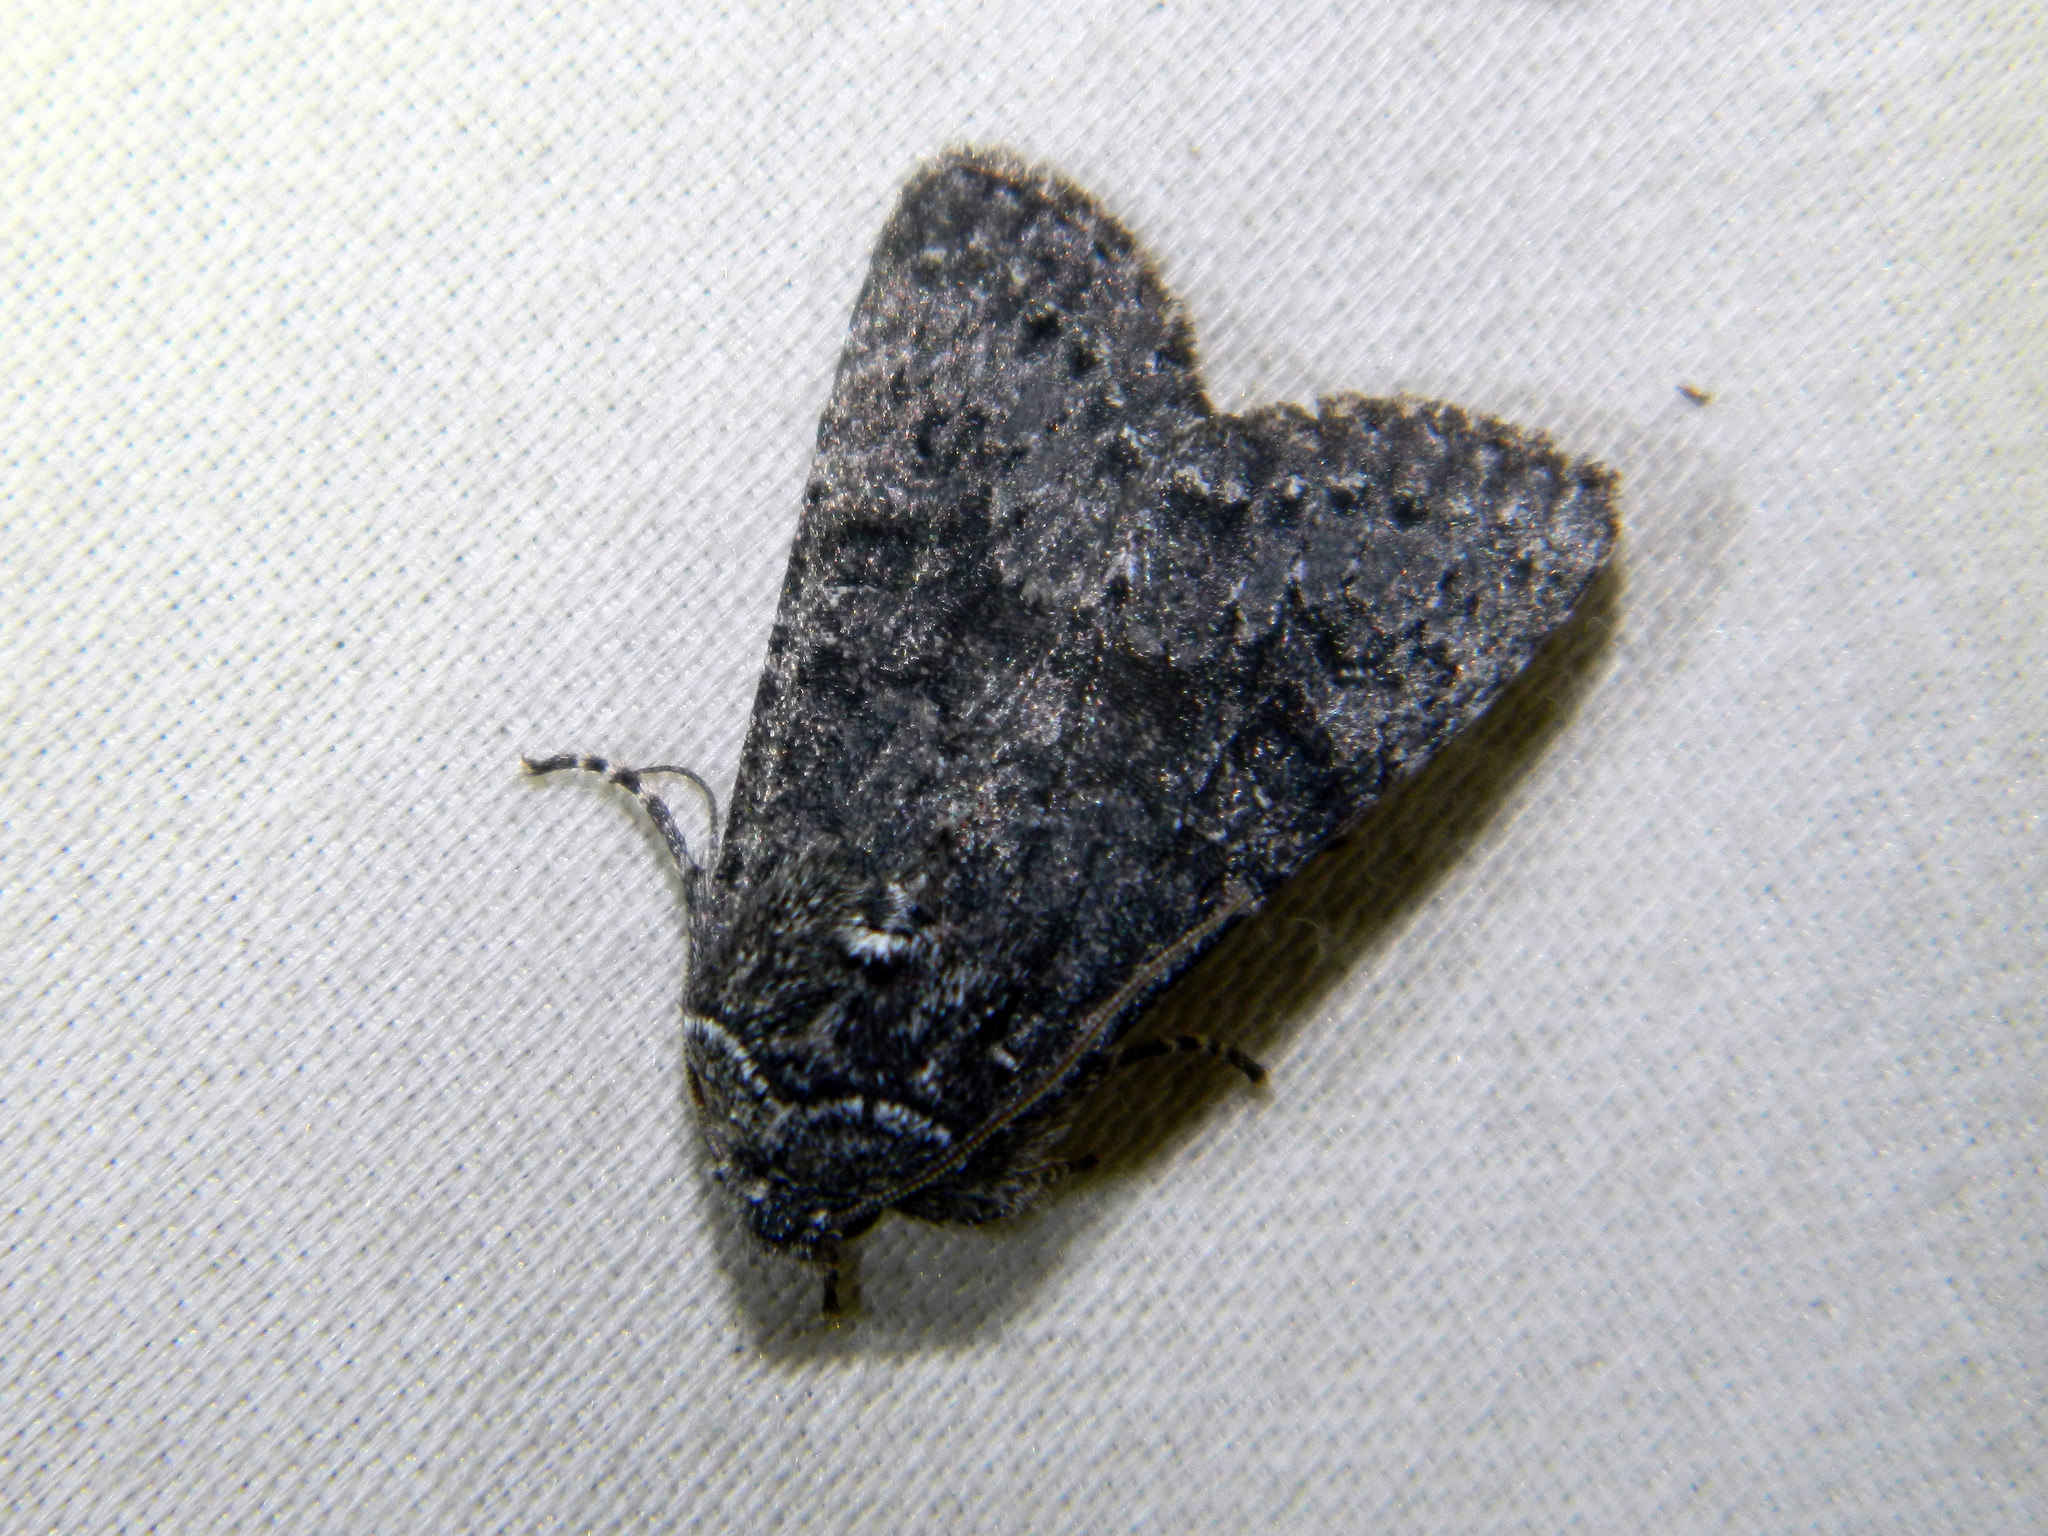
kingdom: Animalia
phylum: Arthropoda
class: Insecta
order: Lepidoptera
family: Noctuidae
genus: Egira
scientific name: Egira dolosa
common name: Lined black aspen cat.
